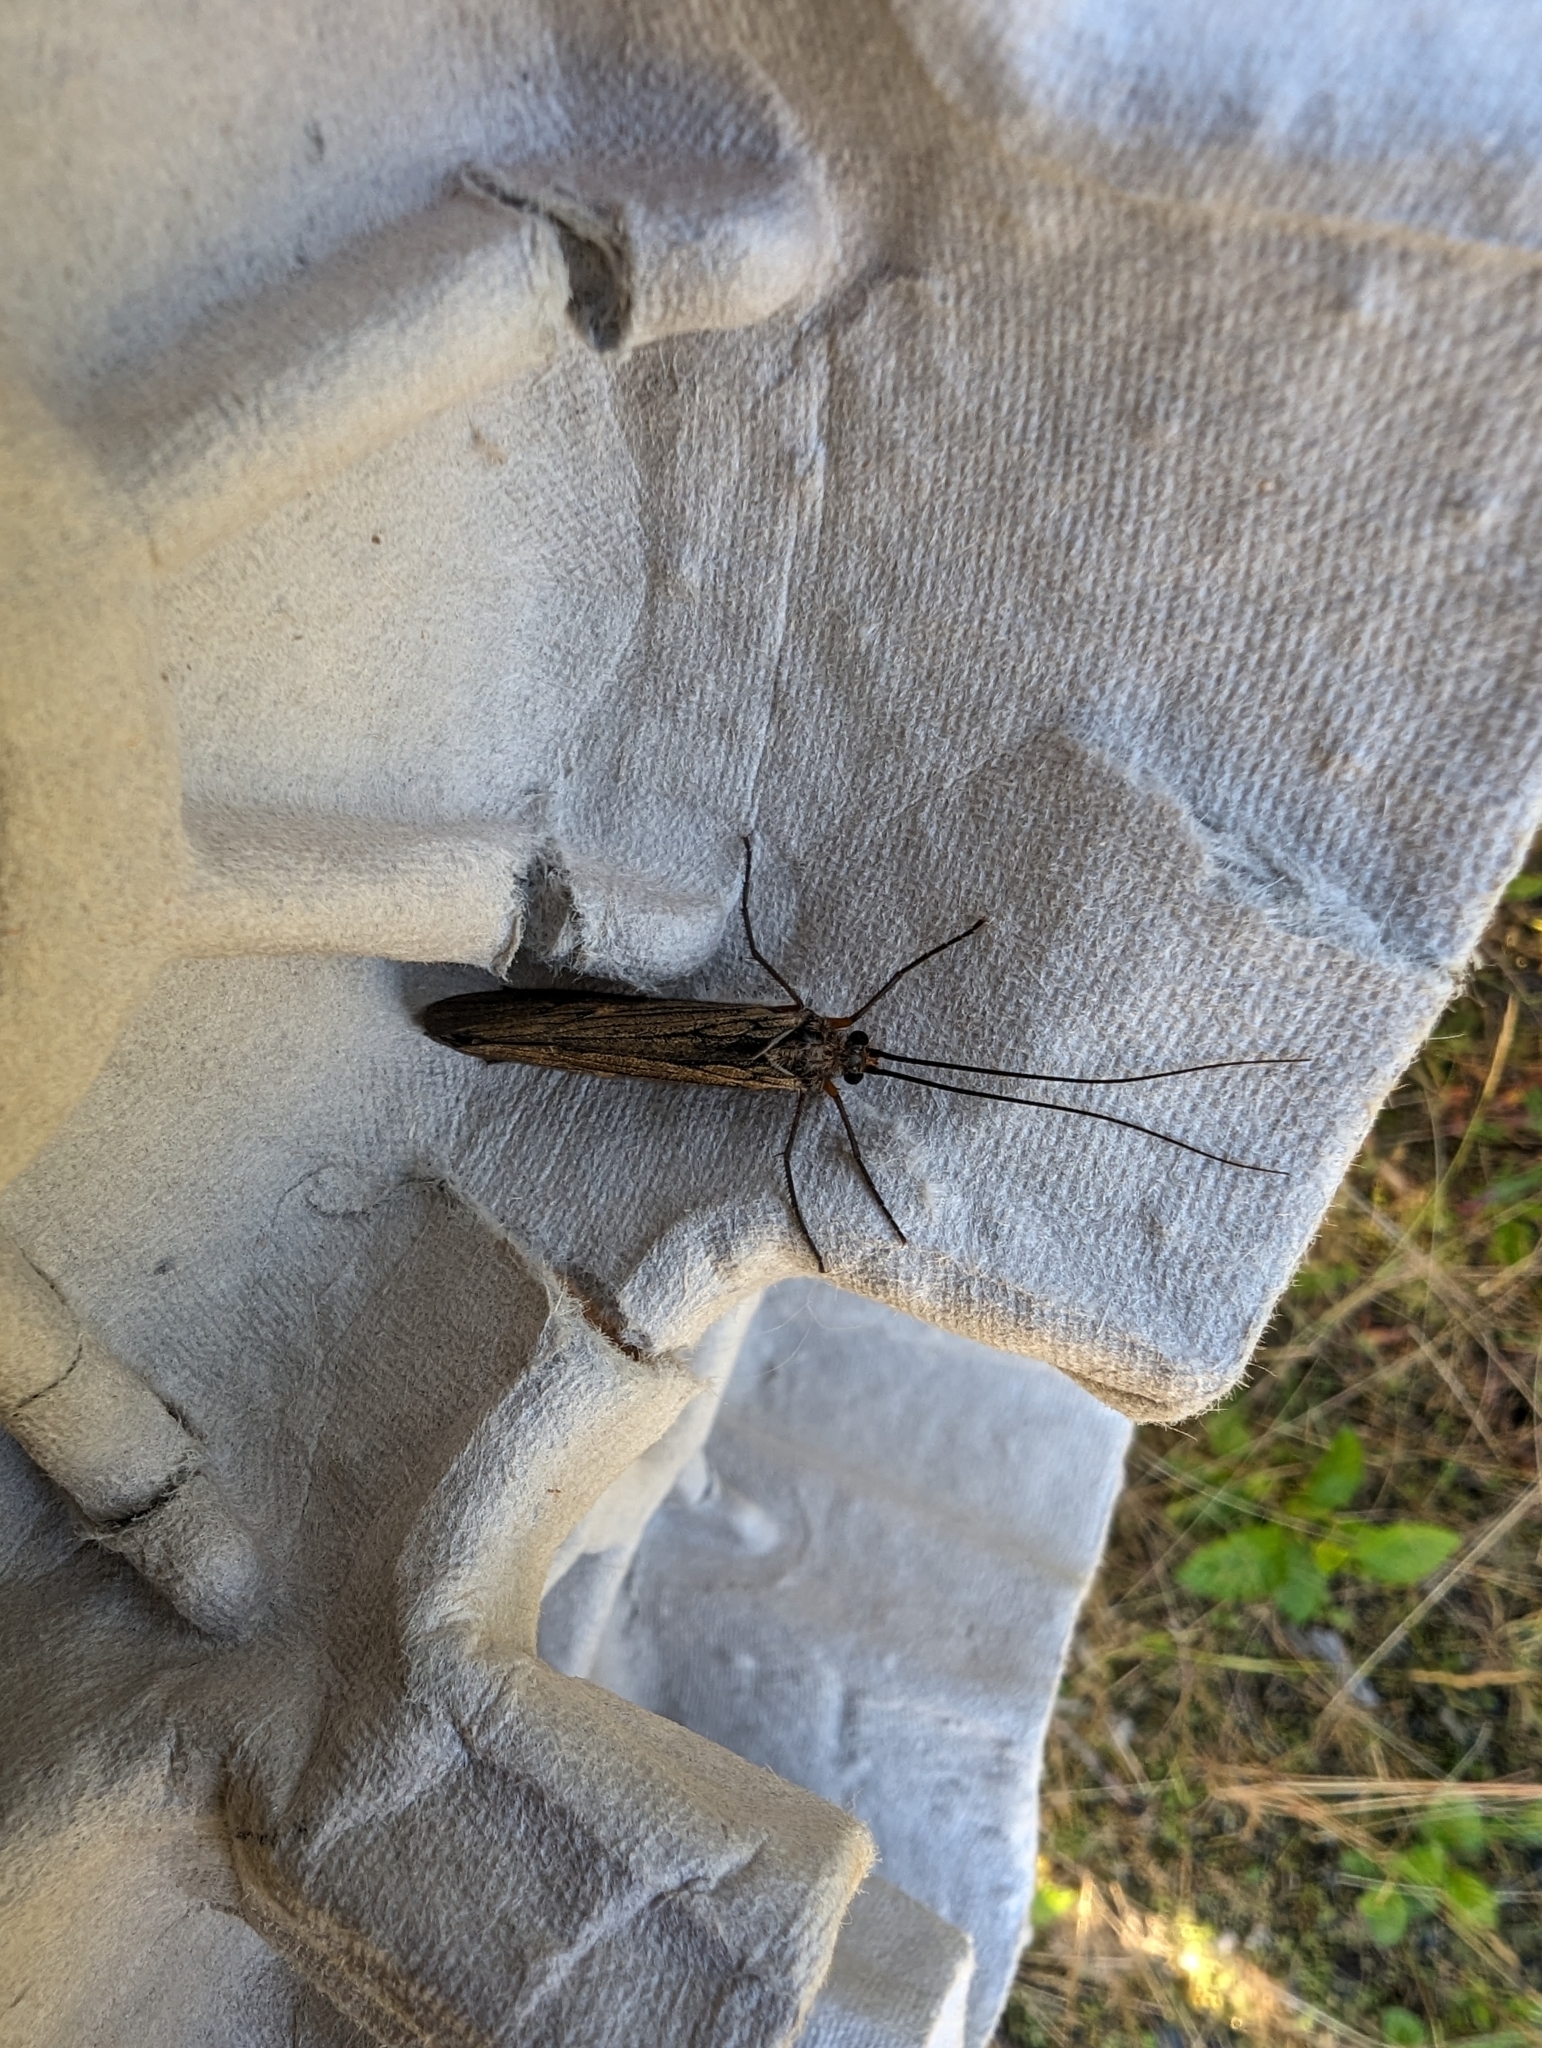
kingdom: Animalia
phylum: Arthropoda
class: Insecta
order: Trichoptera
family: Limnephilidae
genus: Dicosmoecus
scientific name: Dicosmoecus atripes
